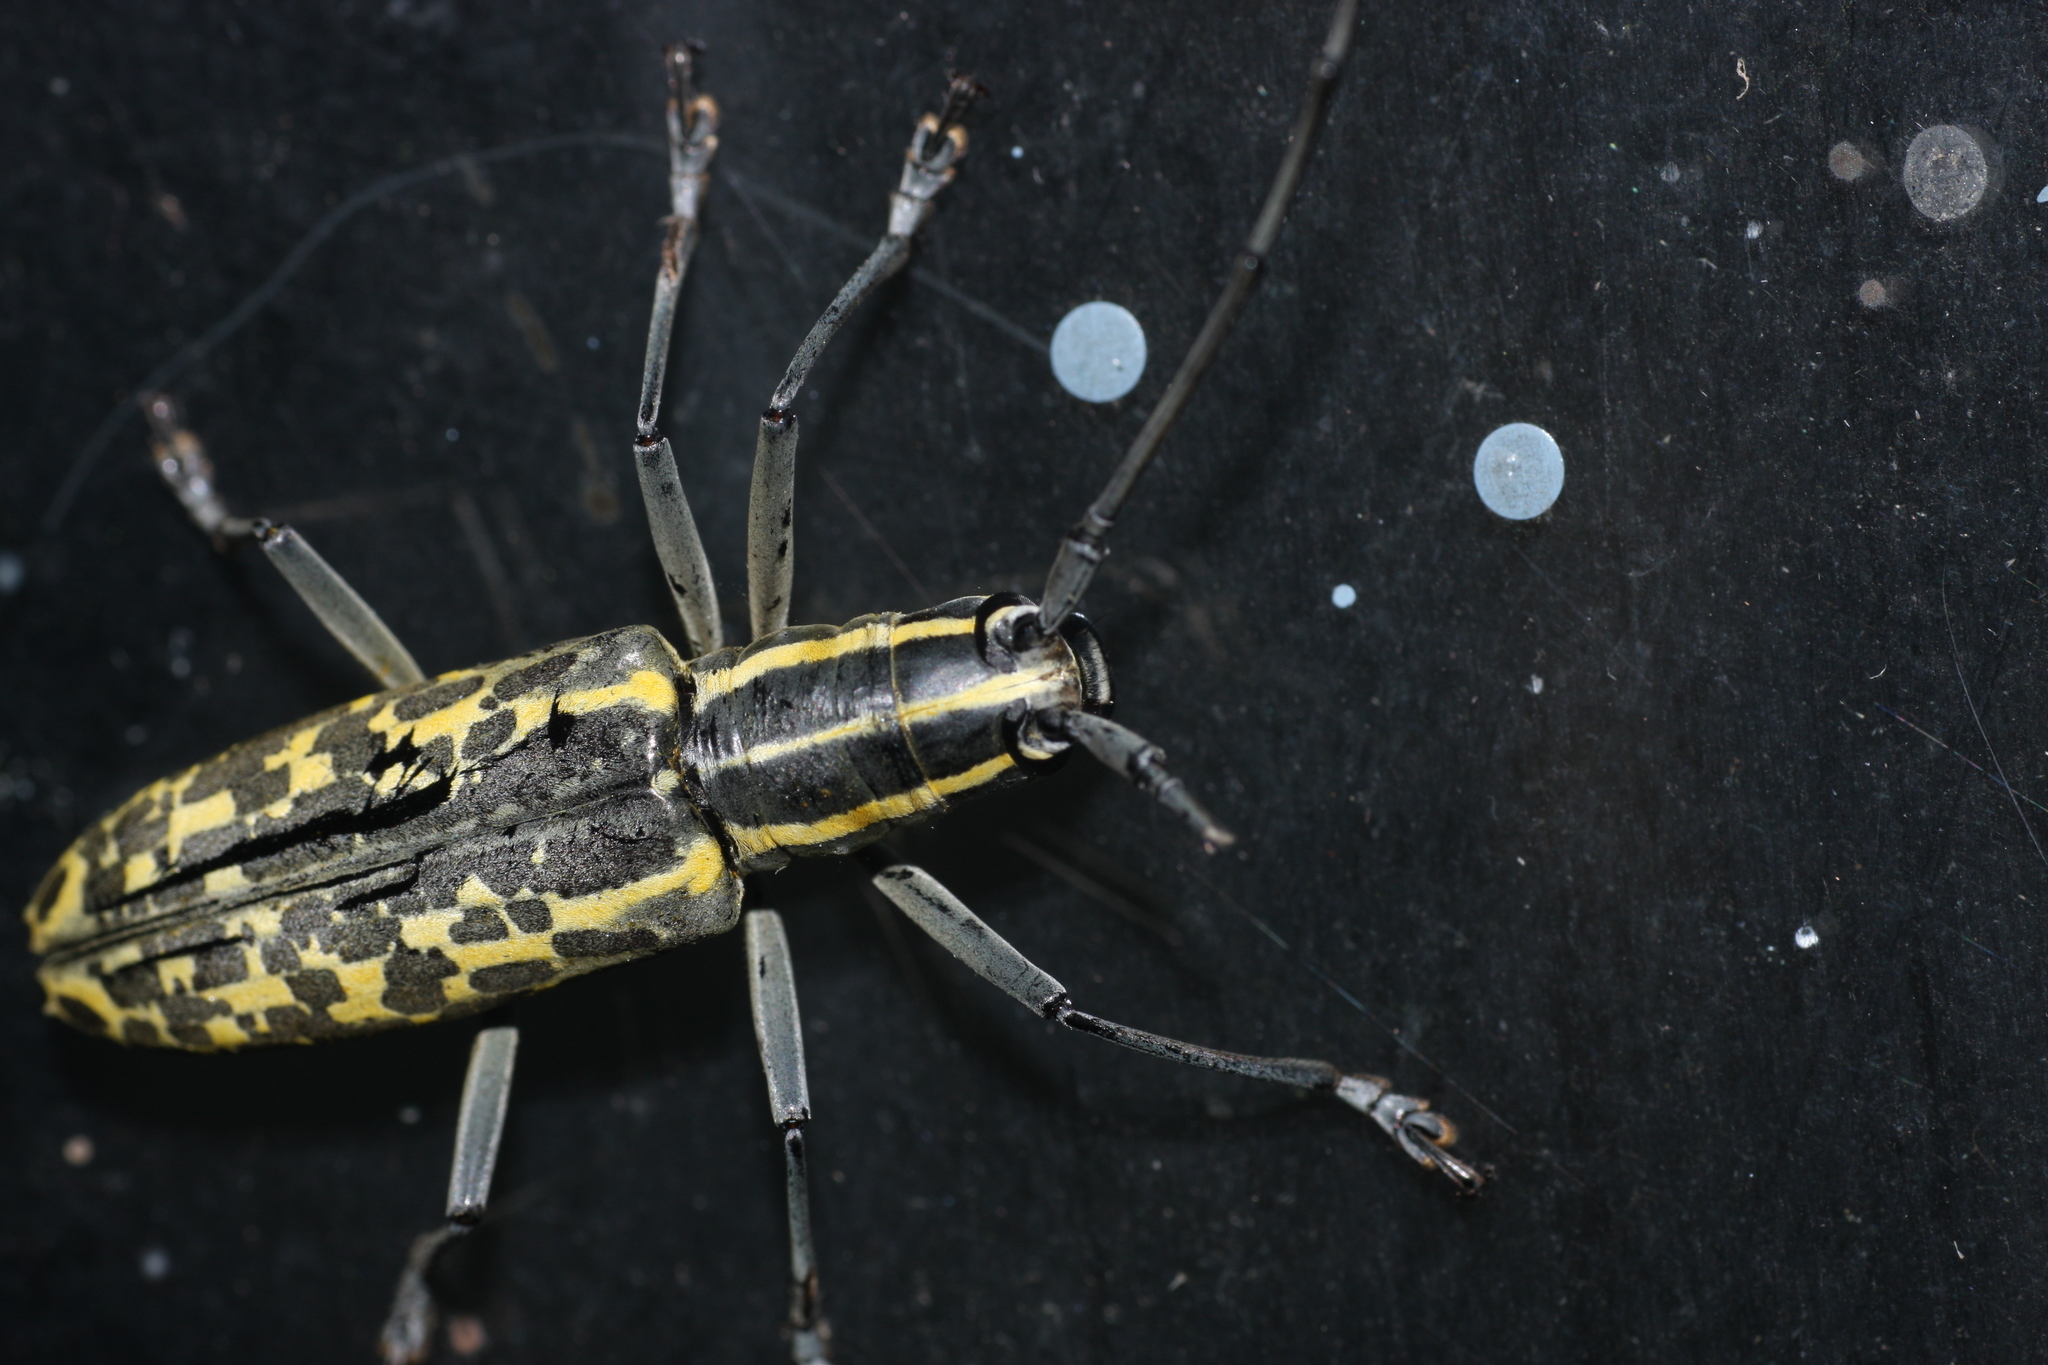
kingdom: Animalia
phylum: Arthropoda
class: Insecta
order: Coleoptera
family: Cerambycidae
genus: Macrochenus
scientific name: Macrochenus tigrinus
